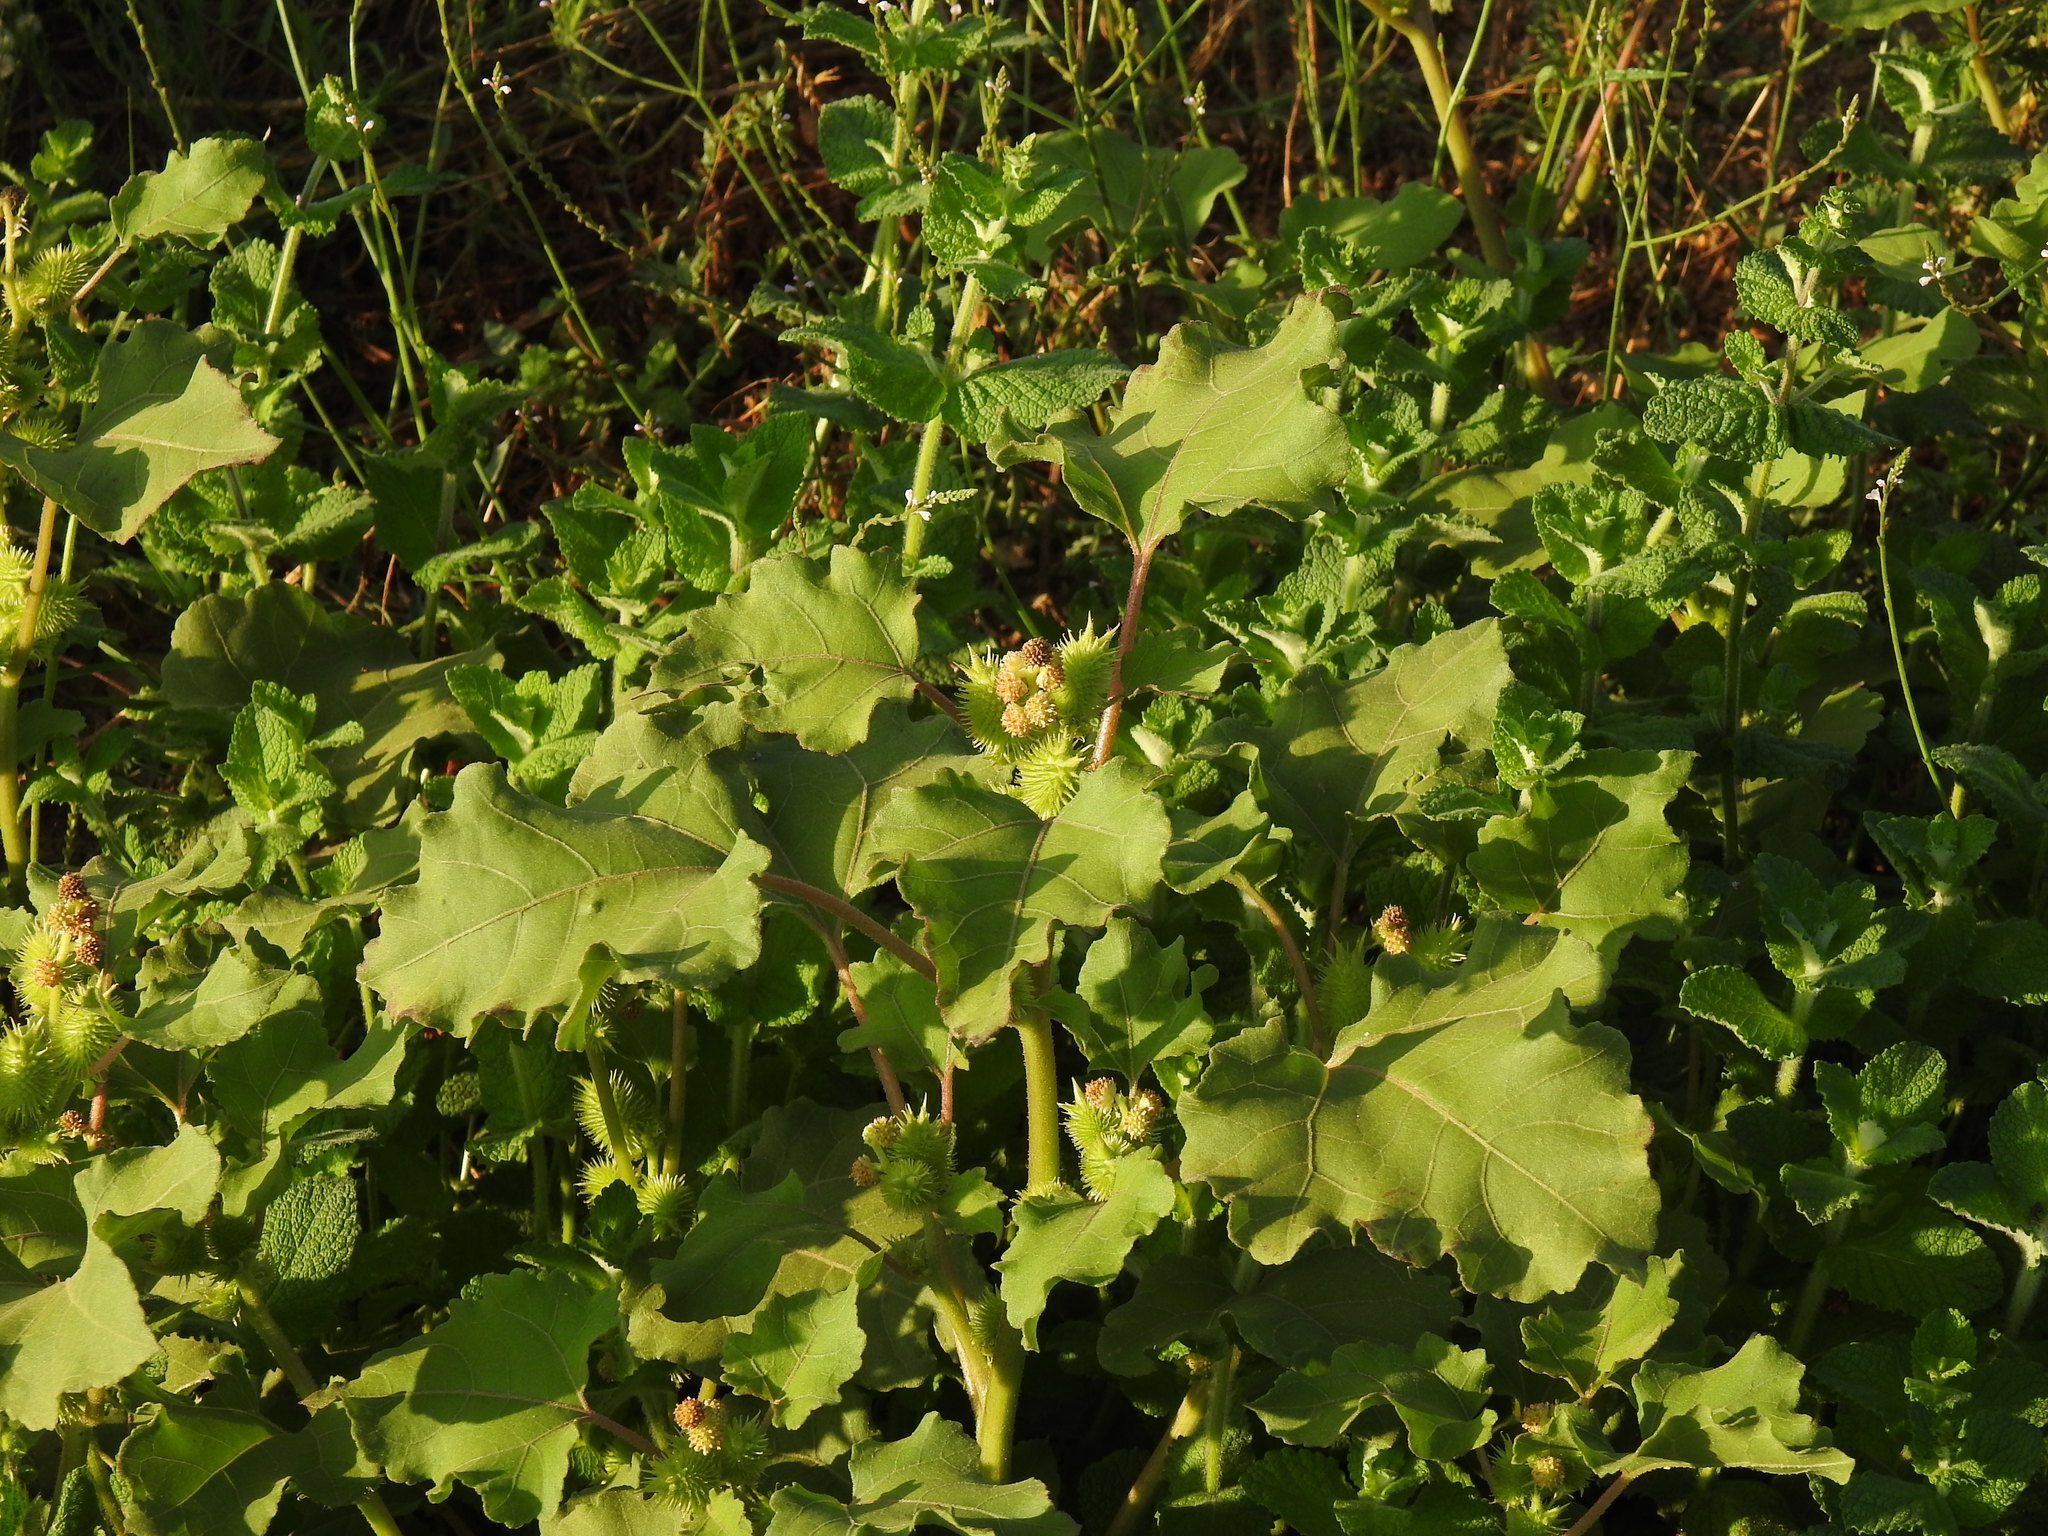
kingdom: Plantae
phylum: Tracheophyta
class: Magnoliopsida
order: Asterales
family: Asteraceae
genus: Xanthium
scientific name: Xanthium orientale
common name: Californian burr
